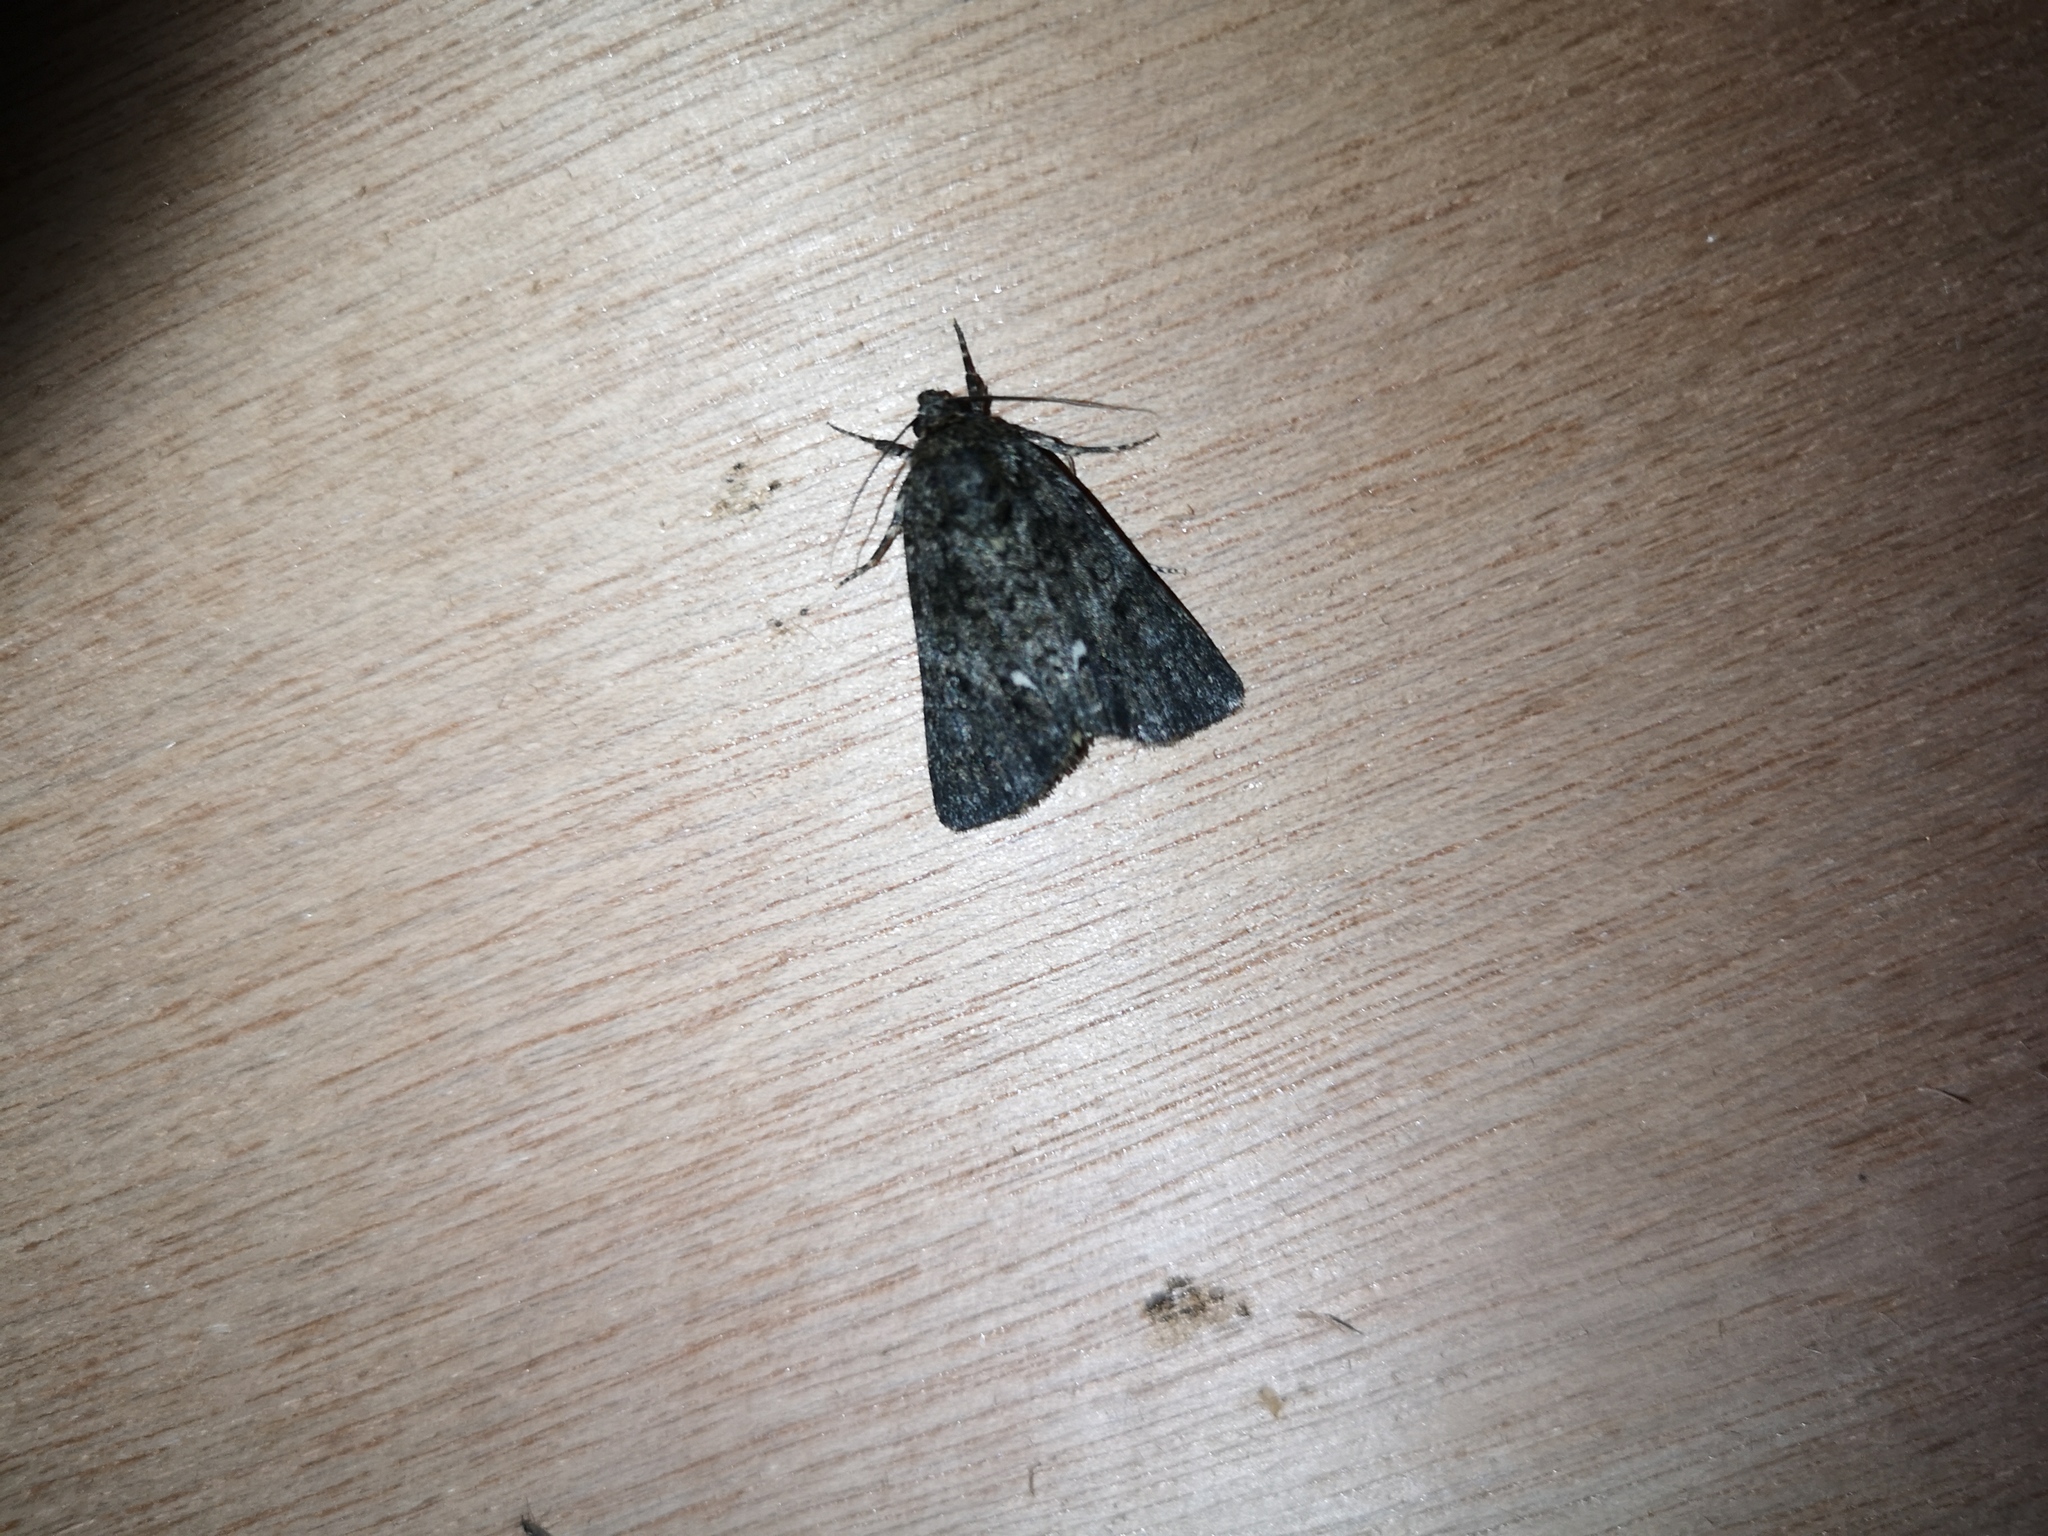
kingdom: Animalia
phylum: Arthropoda
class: Insecta
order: Lepidoptera
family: Noctuidae
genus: Acronicta
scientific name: Acronicta rumicis
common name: Knot grass
